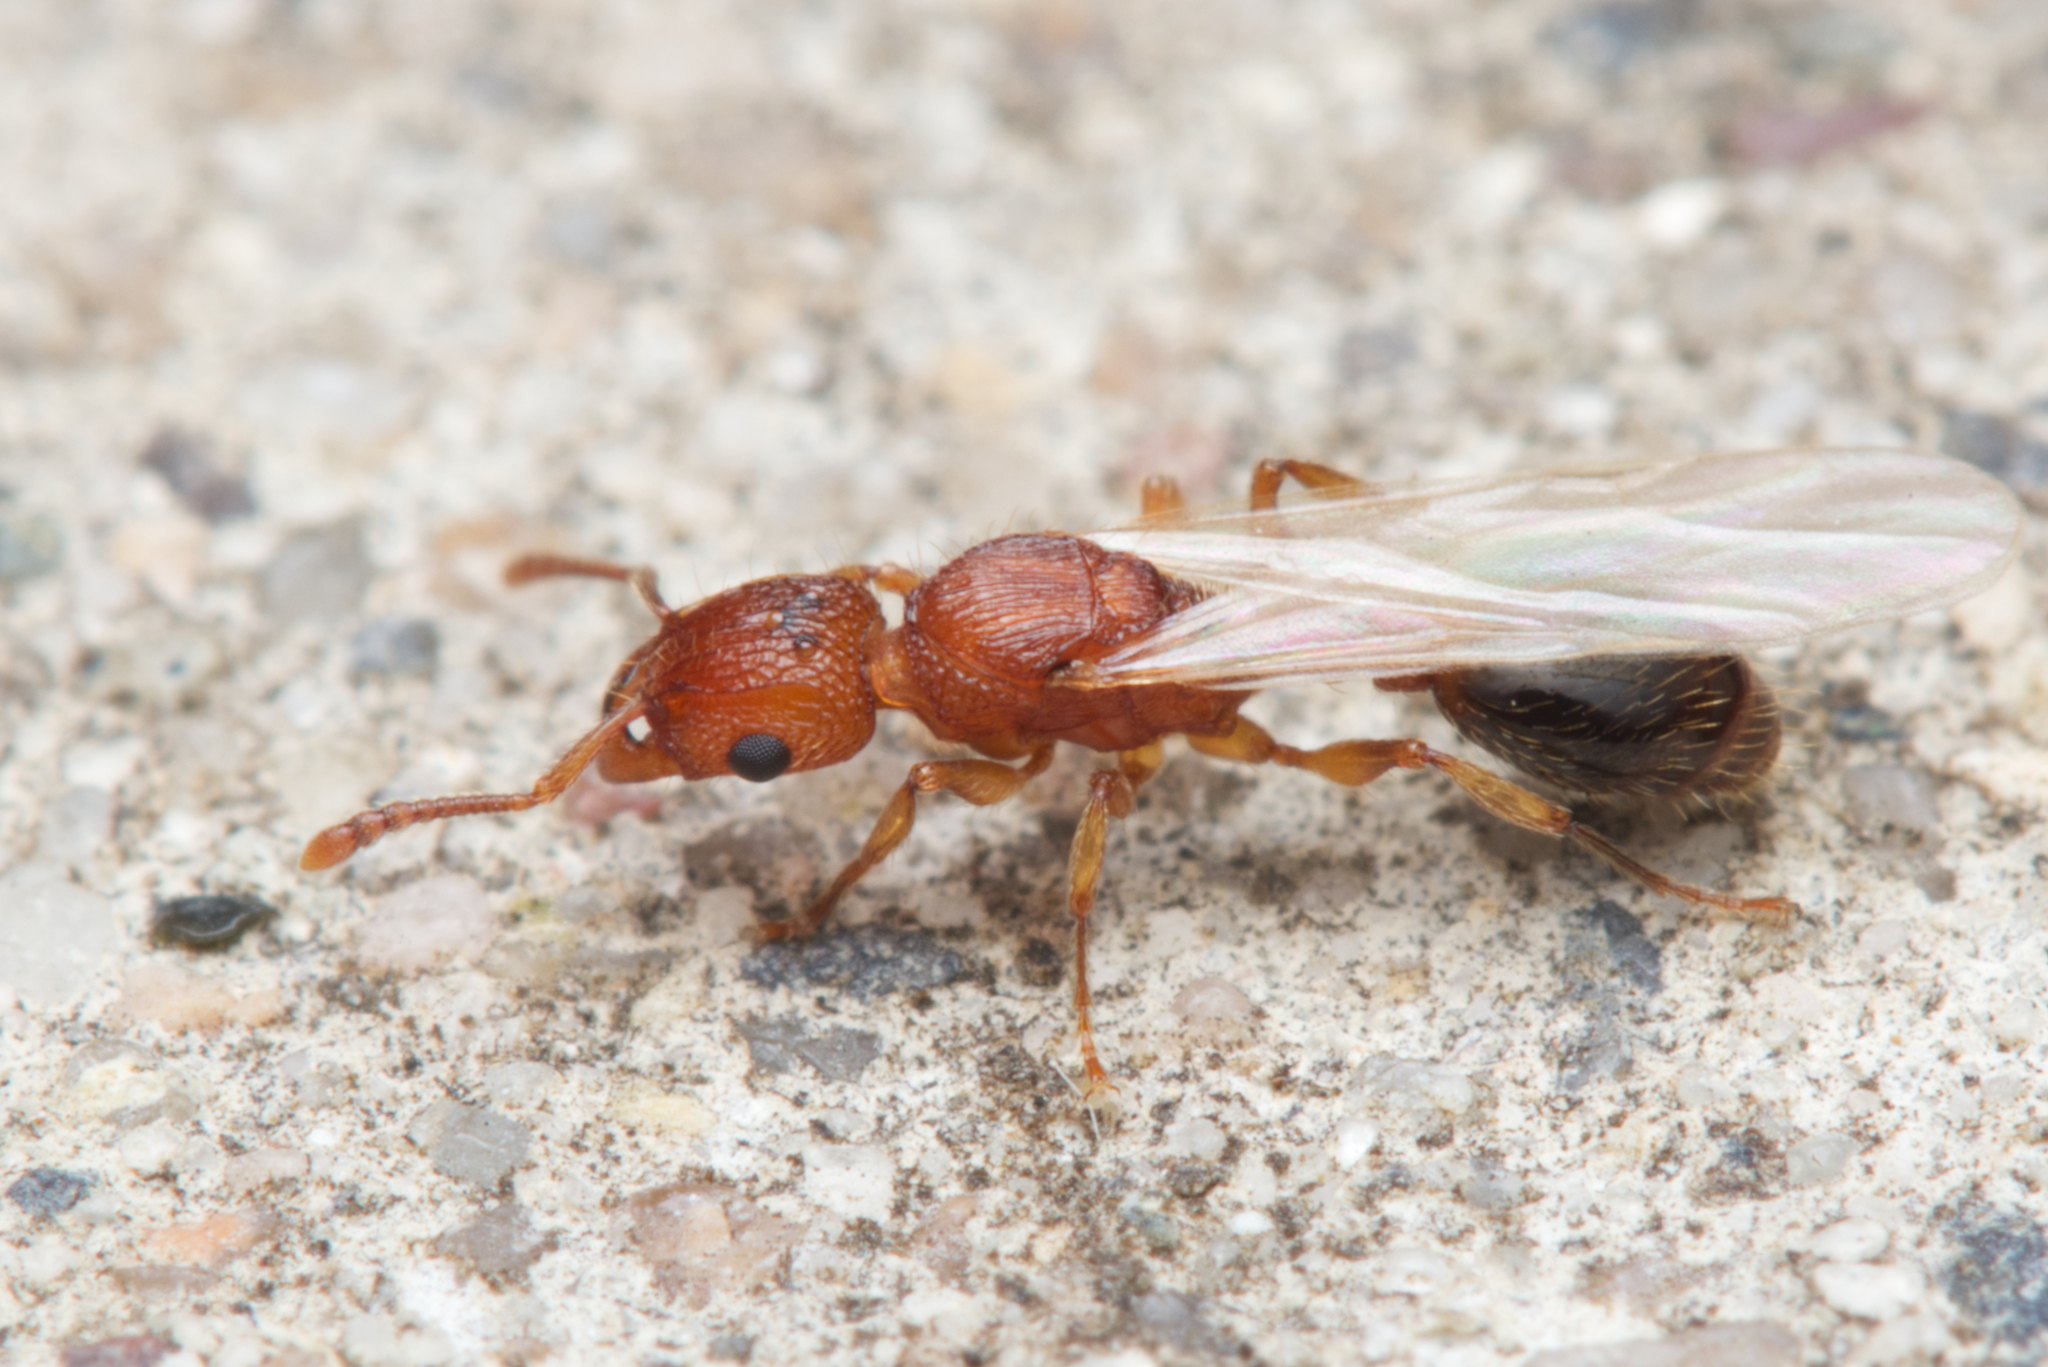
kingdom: Animalia
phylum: Arthropoda
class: Insecta
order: Hymenoptera
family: Formicidae
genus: Tetramorium
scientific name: Tetramorium bicarinatum
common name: Guinea ant
